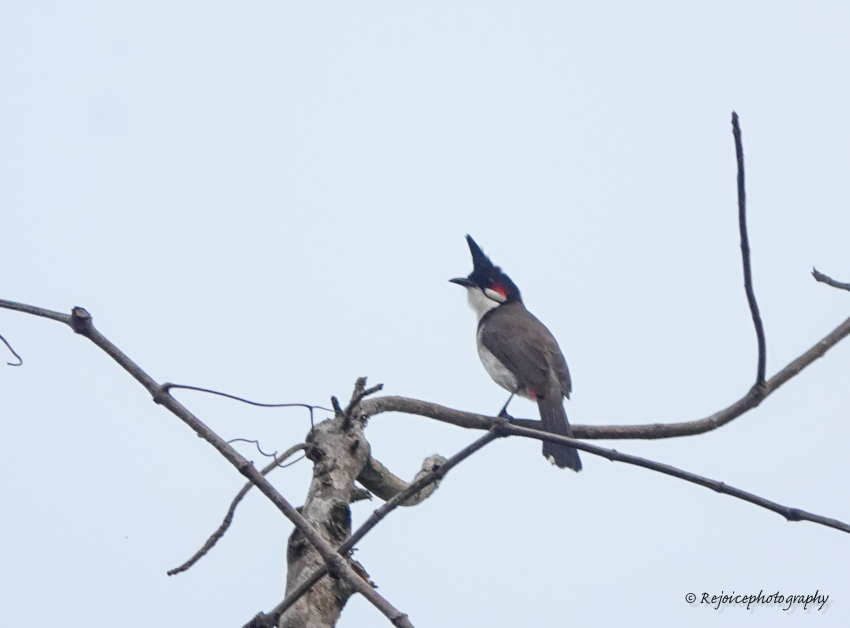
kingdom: Animalia
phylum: Chordata
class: Aves
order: Passeriformes
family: Pycnonotidae
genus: Pycnonotus
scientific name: Pycnonotus jocosus
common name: Red-whiskered bulbul
